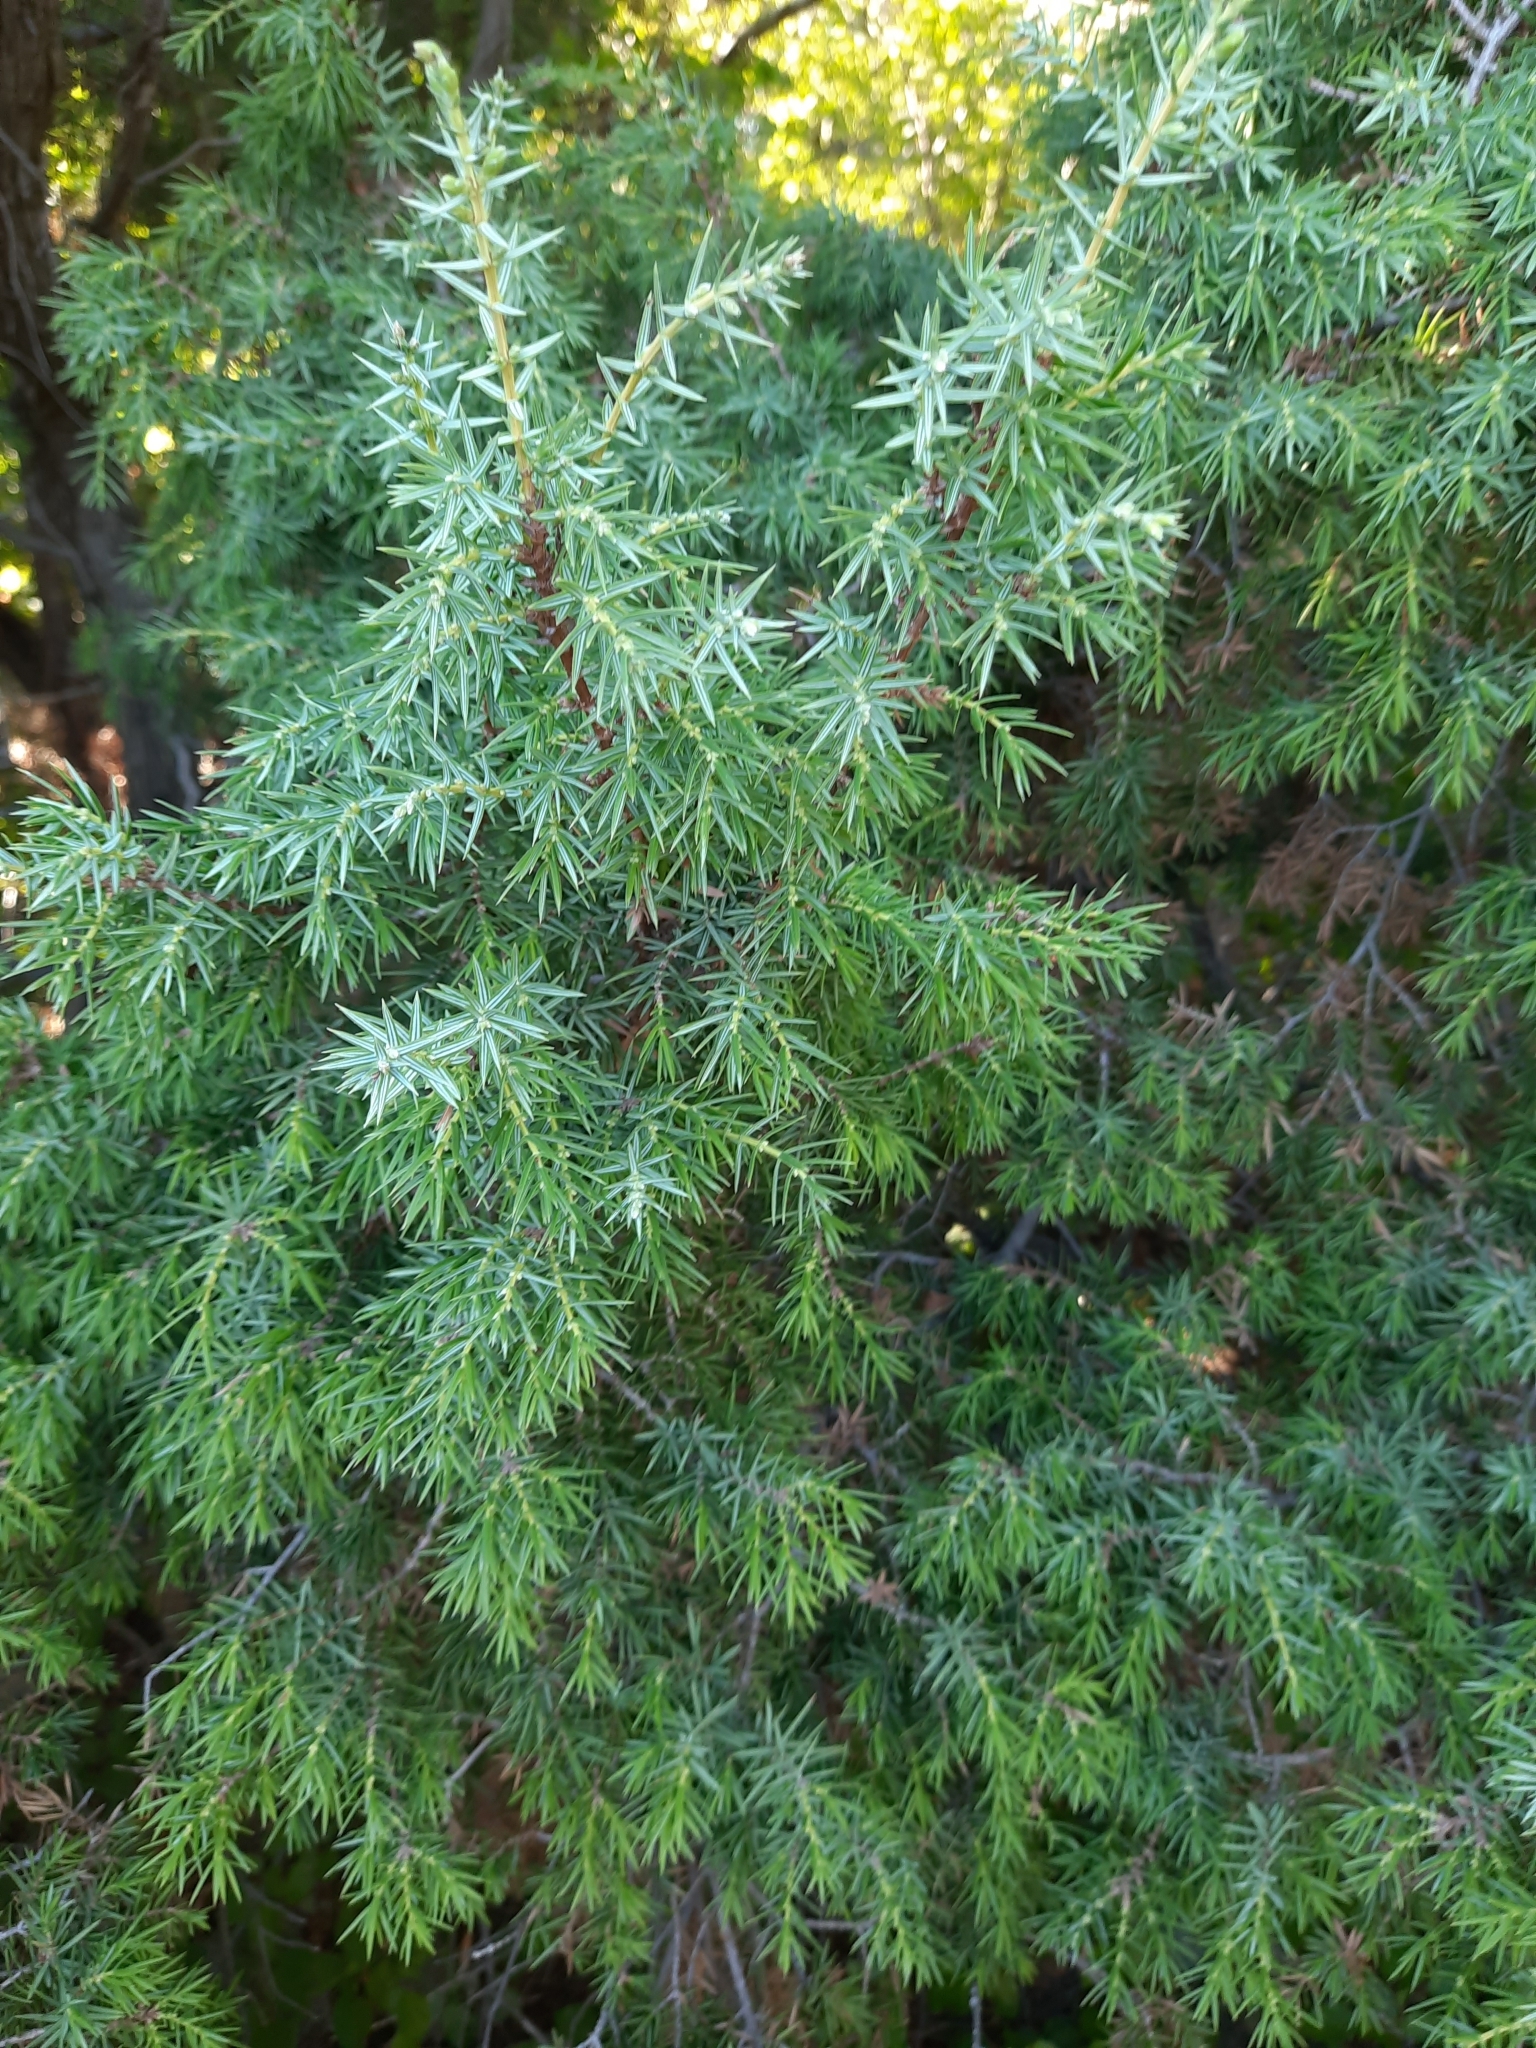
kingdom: Plantae
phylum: Tracheophyta
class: Pinopsida
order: Pinales
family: Cupressaceae
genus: Juniperus
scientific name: Juniperus oxycedrus
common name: Prickly juniper
